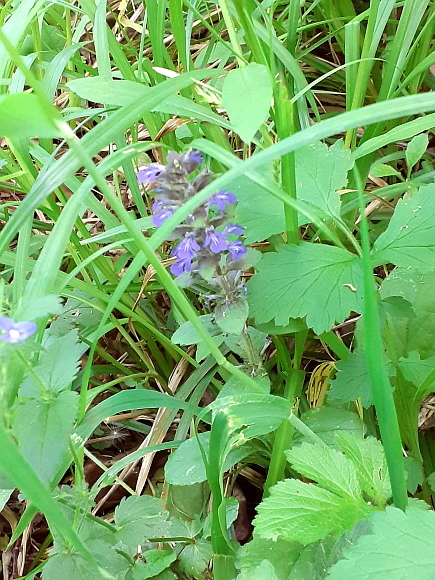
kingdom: Plantae
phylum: Tracheophyta
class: Magnoliopsida
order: Lamiales
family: Lamiaceae
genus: Ajuga
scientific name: Ajuga reptans
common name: Bugle
